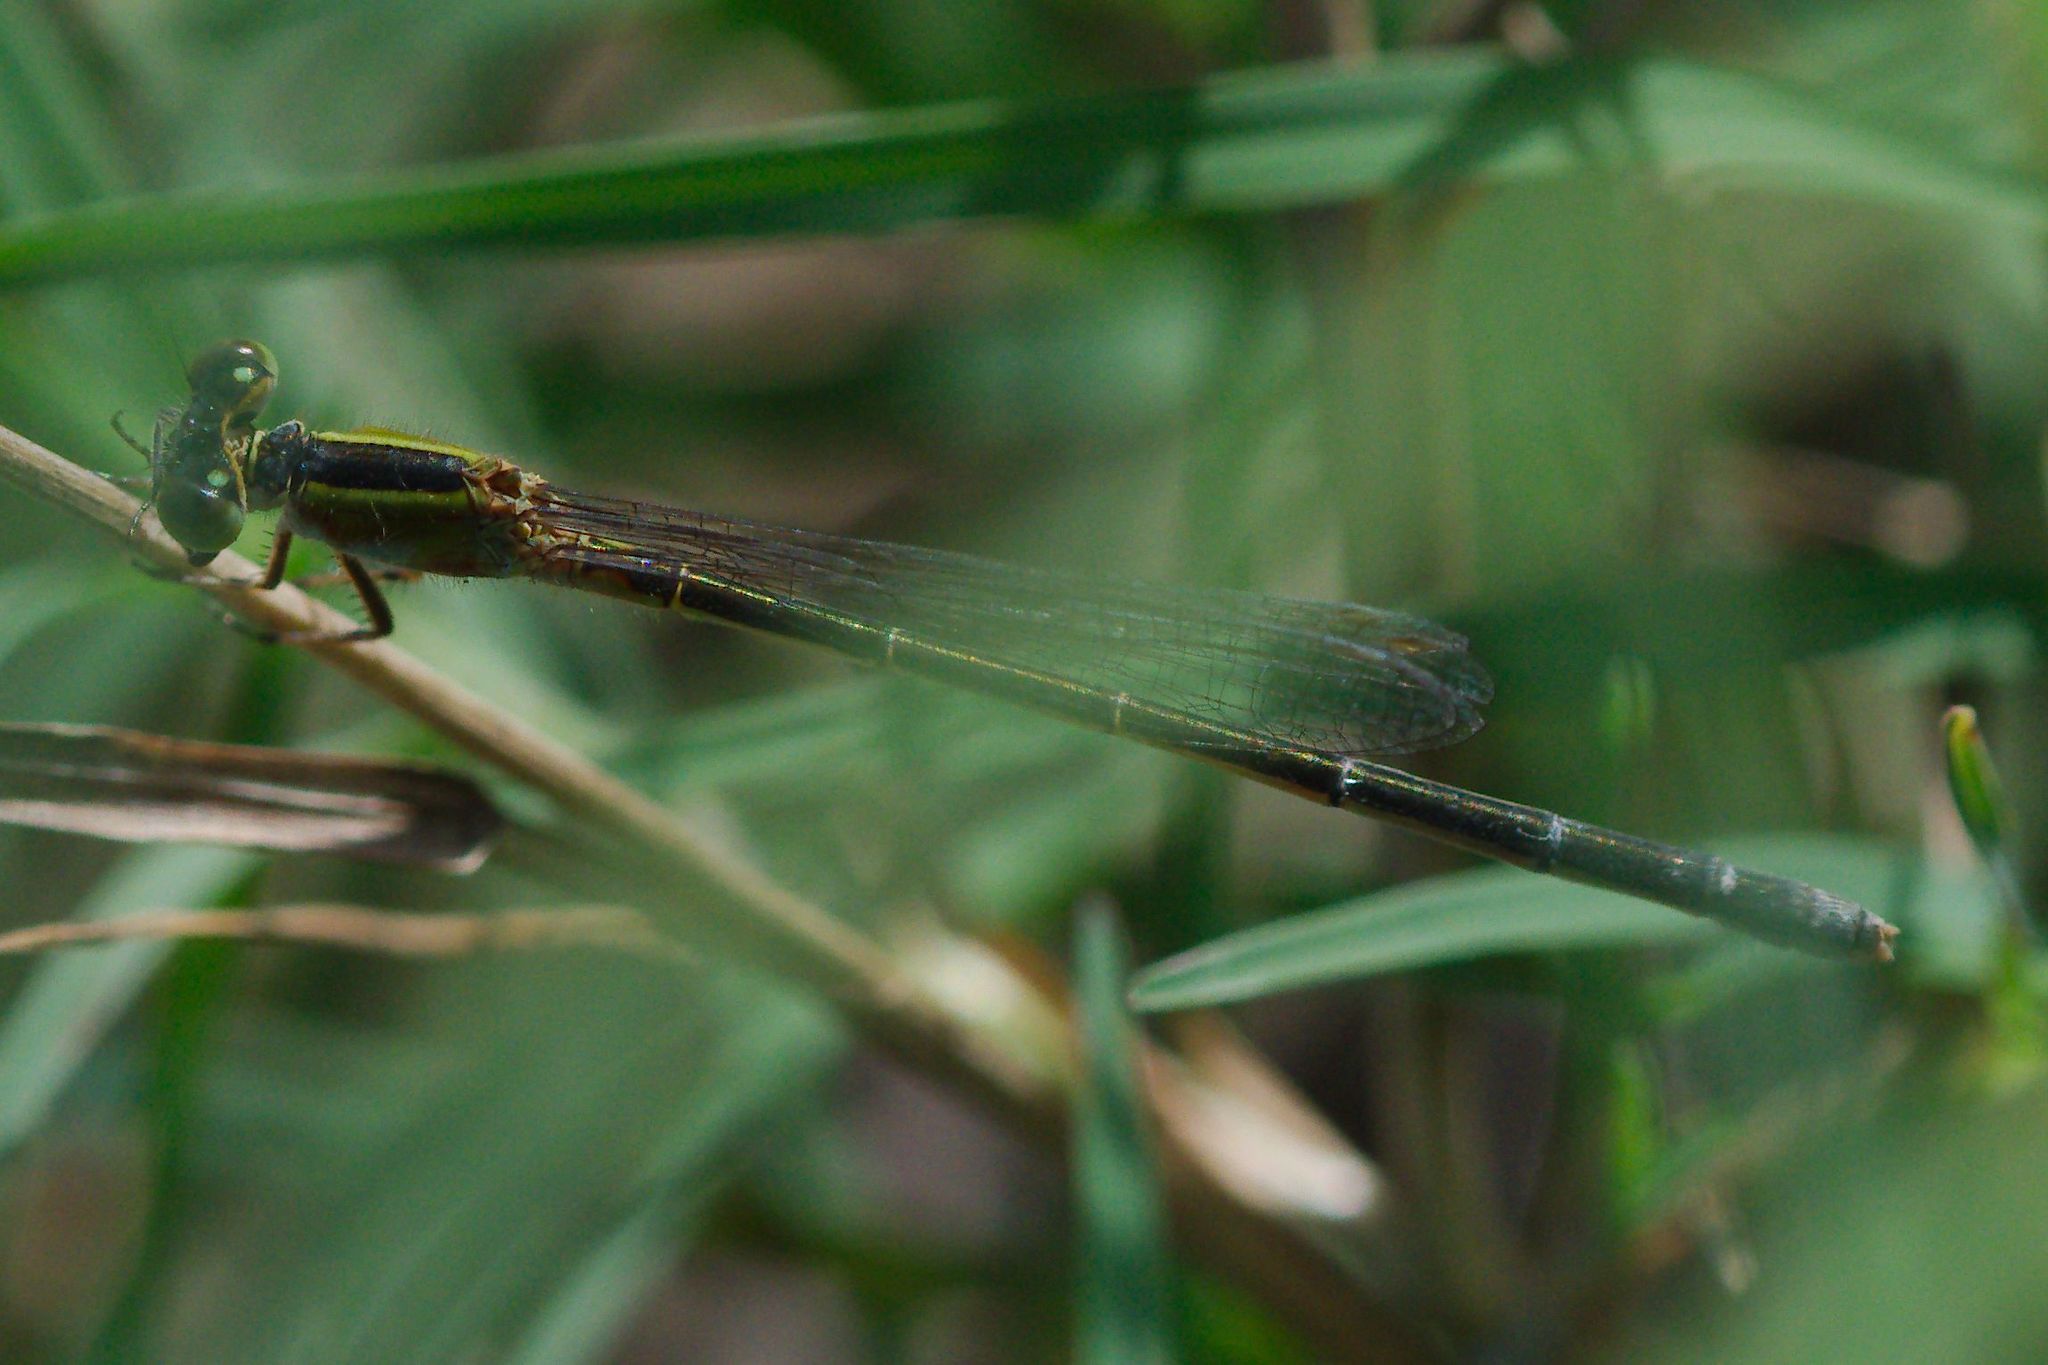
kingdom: Animalia
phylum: Arthropoda
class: Insecta
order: Odonata
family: Coenagrionidae
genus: Ischnura
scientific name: Ischnura ramburii
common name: Rambur's forktail
